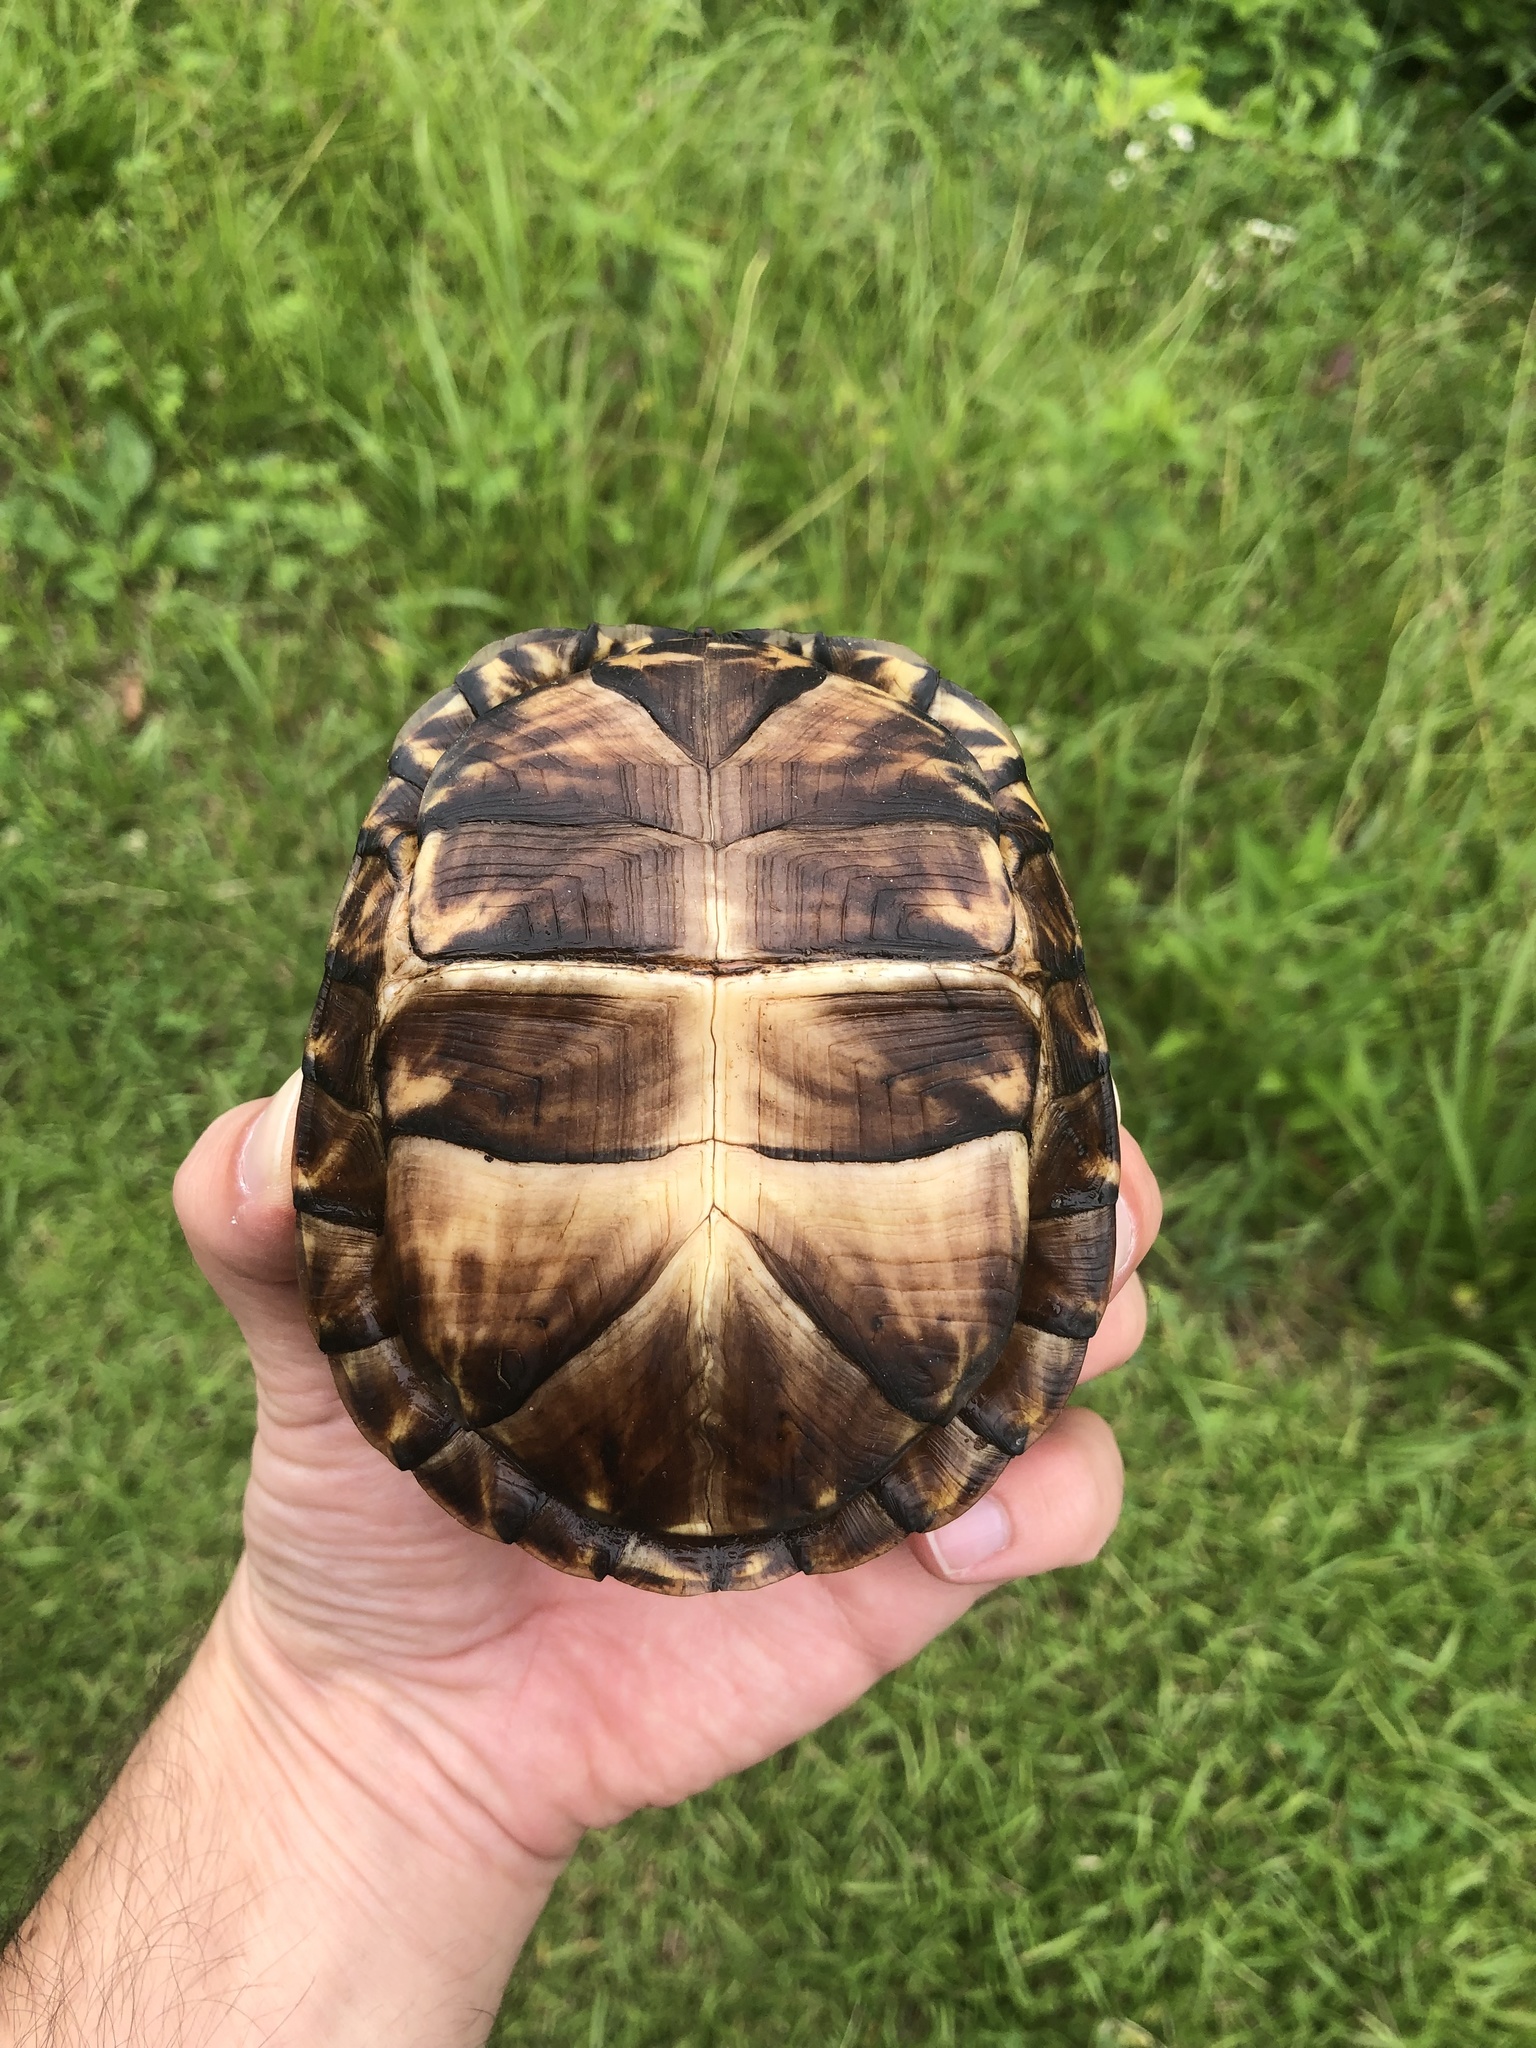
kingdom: Animalia
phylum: Chordata
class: Testudines
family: Emydidae
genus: Terrapene
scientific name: Terrapene carolina
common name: Common box turtle
